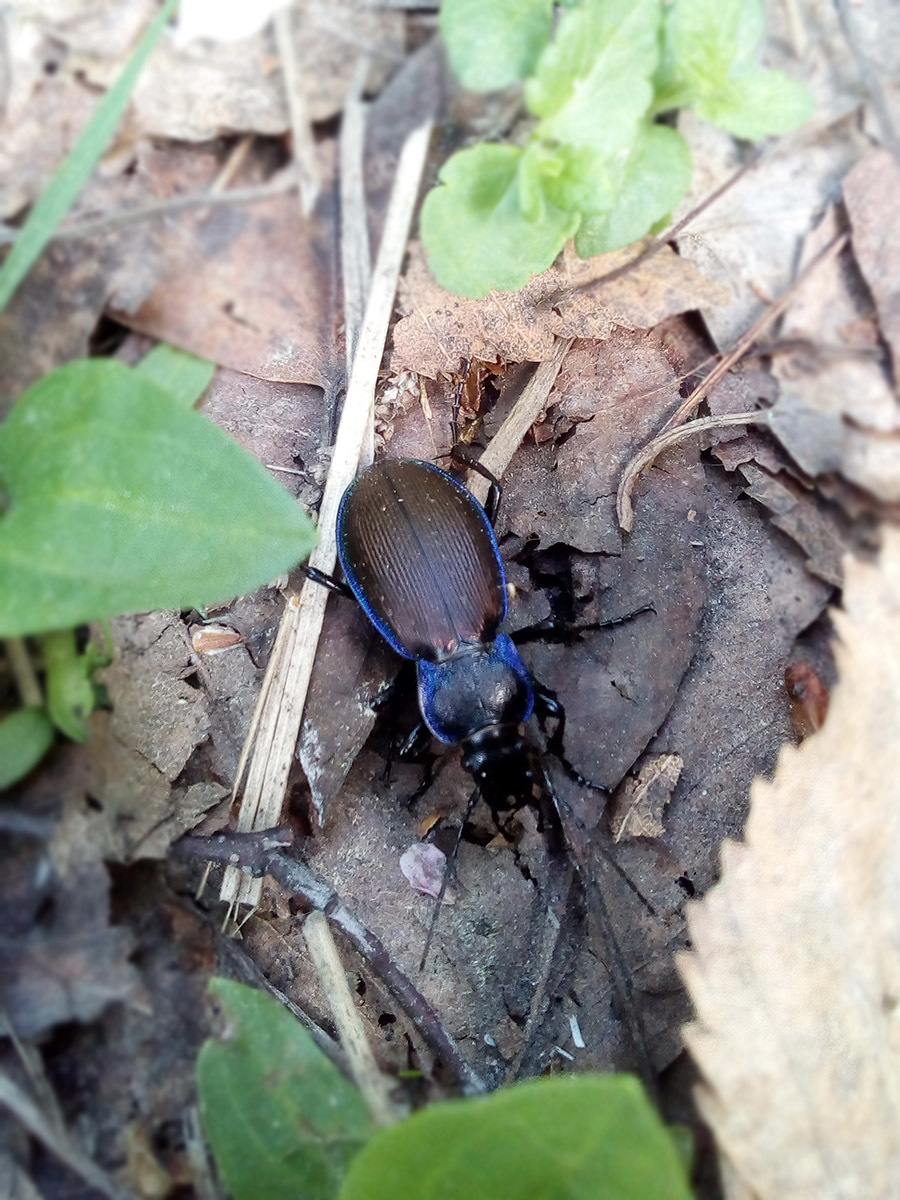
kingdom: Animalia
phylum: Arthropoda
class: Insecta
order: Coleoptera
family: Carabidae
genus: Carabus
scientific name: Carabus regalis
